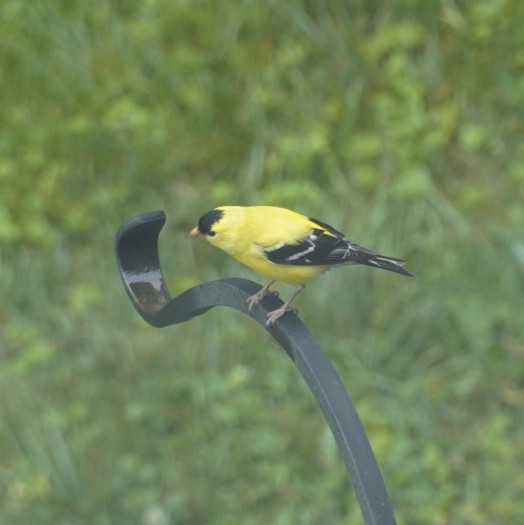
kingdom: Animalia
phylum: Chordata
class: Aves
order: Passeriformes
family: Fringillidae
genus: Spinus
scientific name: Spinus tristis
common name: American goldfinch
